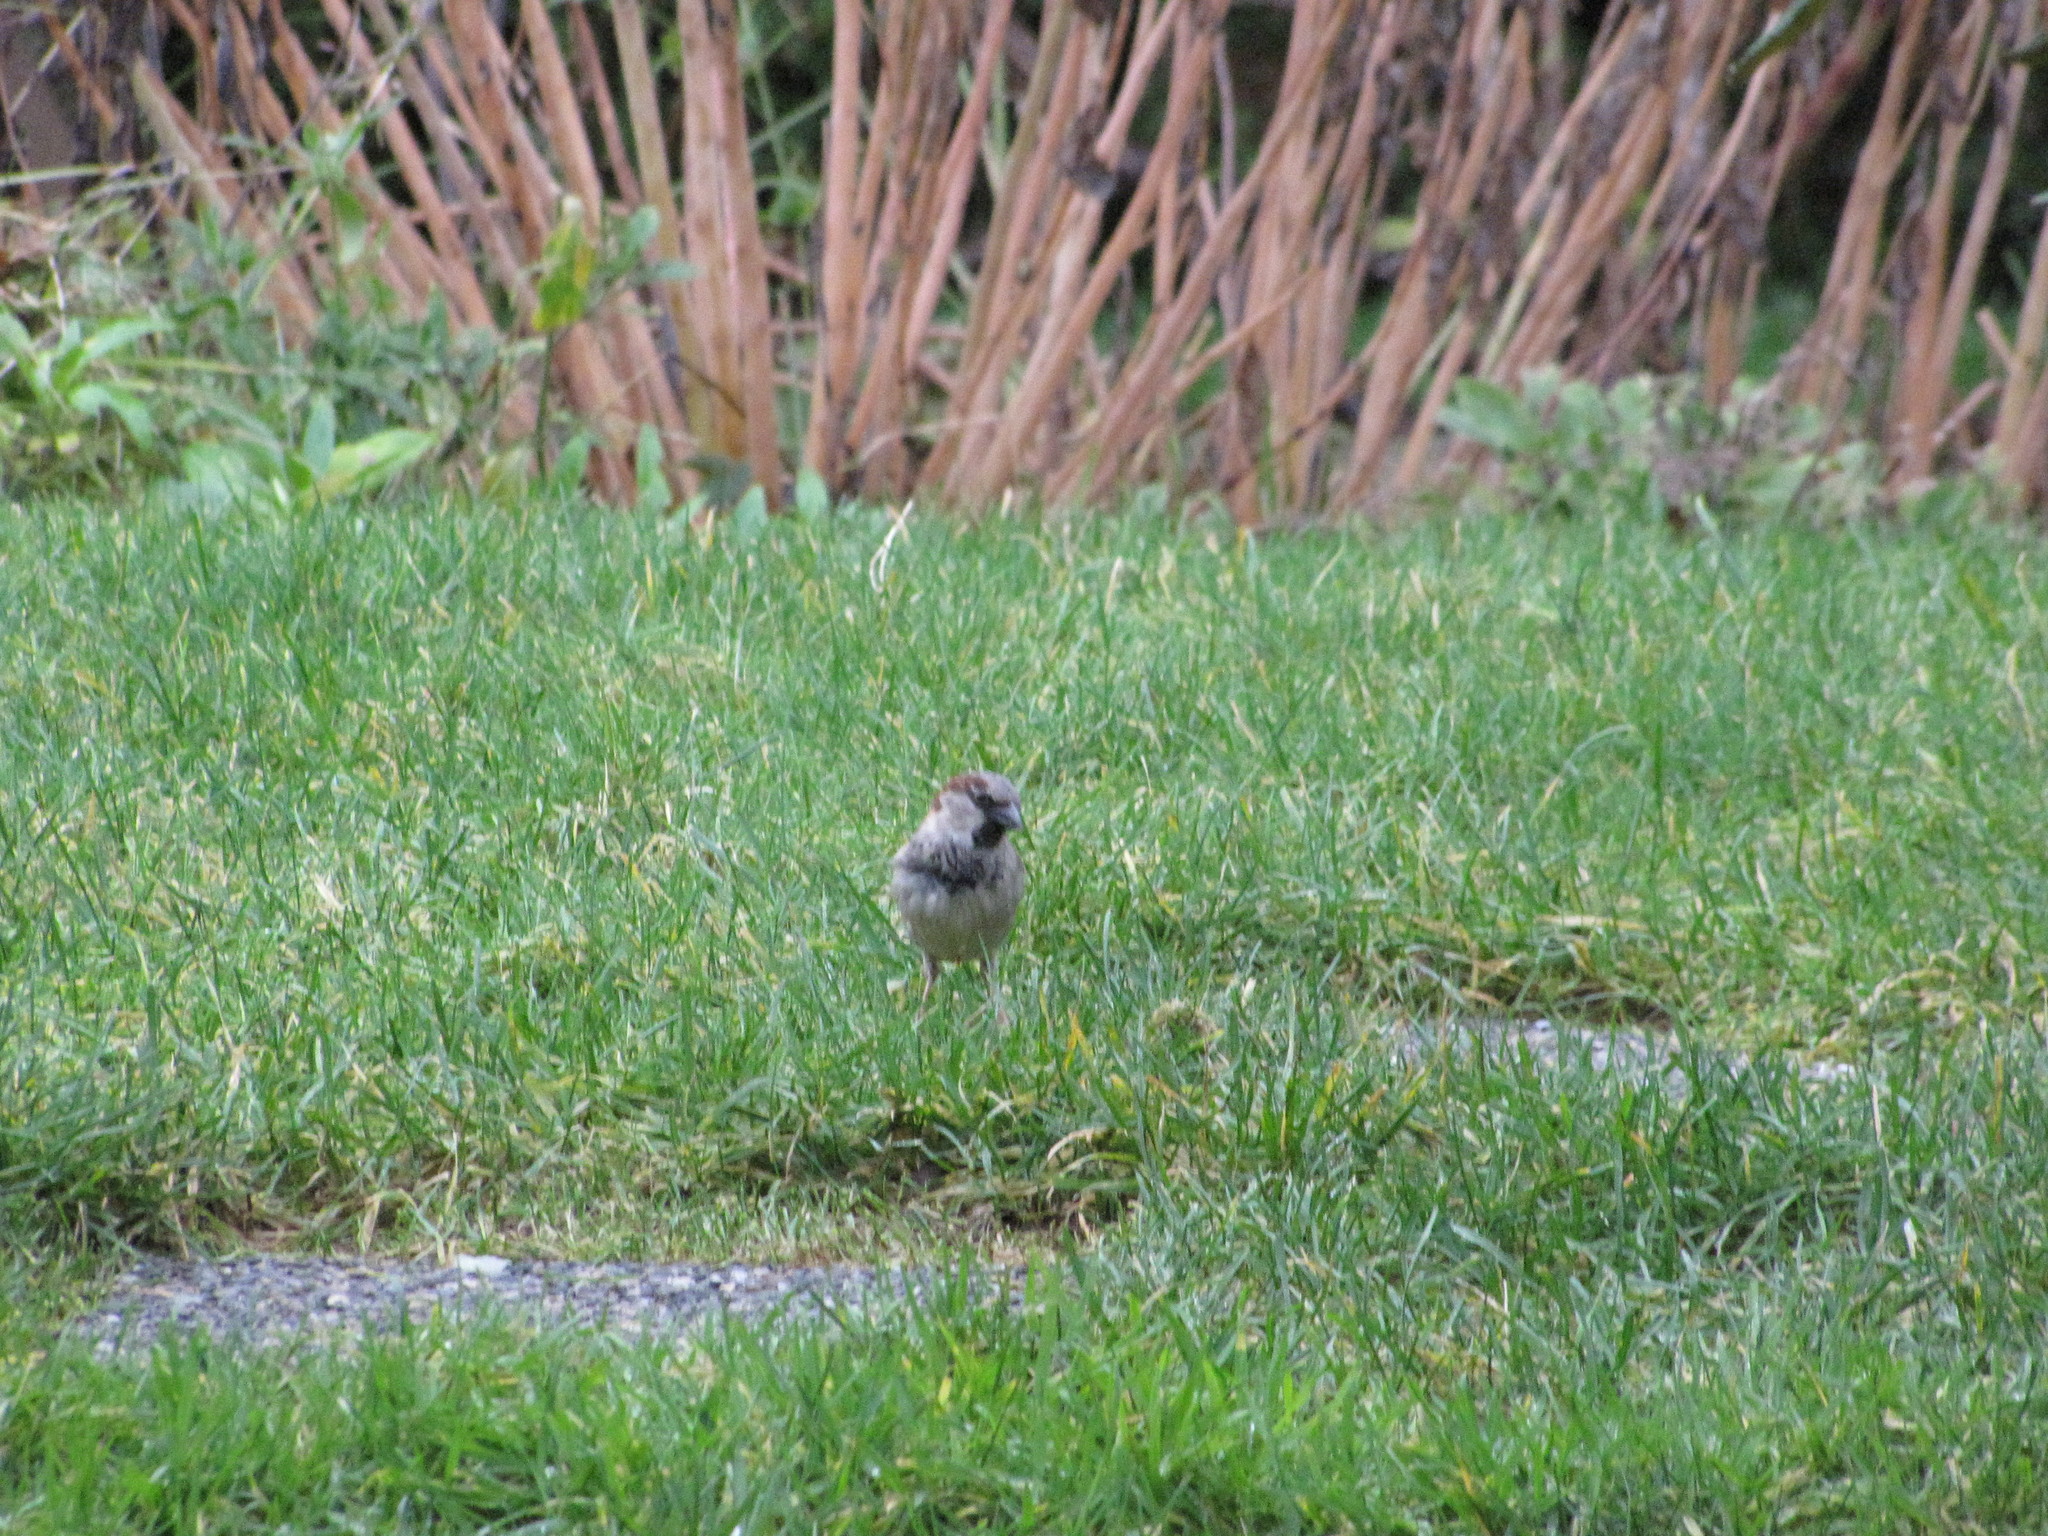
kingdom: Animalia
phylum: Chordata
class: Aves
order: Passeriformes
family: Passeridae
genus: Passer
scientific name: Passer domesticus
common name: House sparrow
